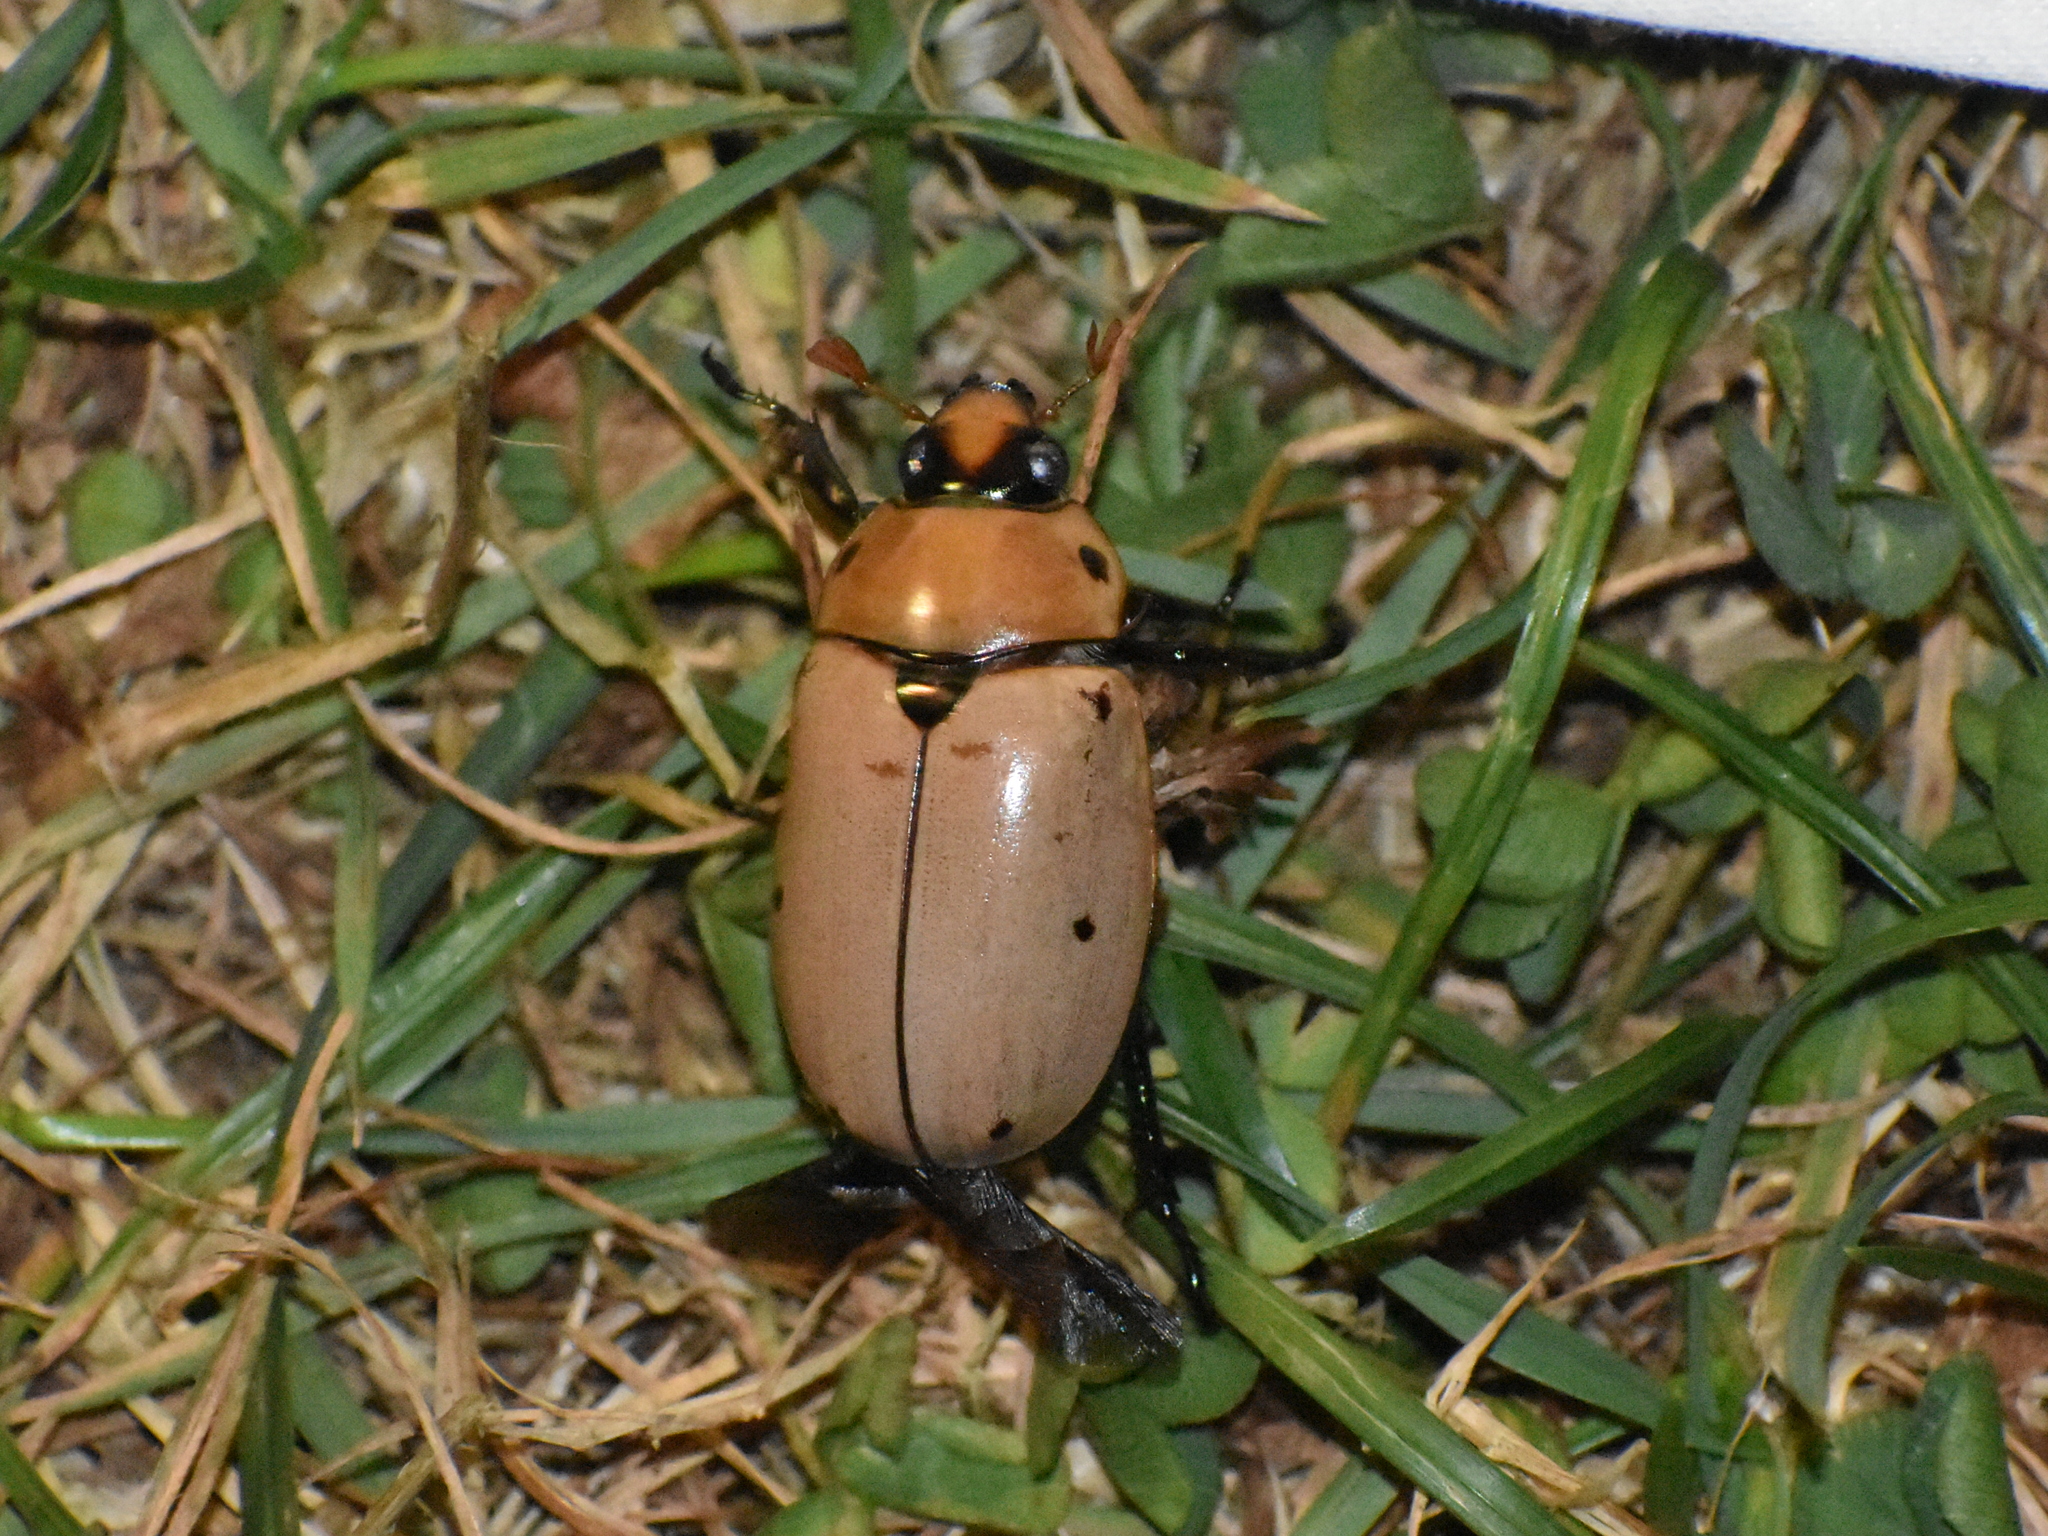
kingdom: Animalia
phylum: Arthropoda
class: Insecta
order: Coleoptera
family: Scarabaeidae
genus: Pelidnota
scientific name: Pelidnota punctata
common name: Grapevine beetle
